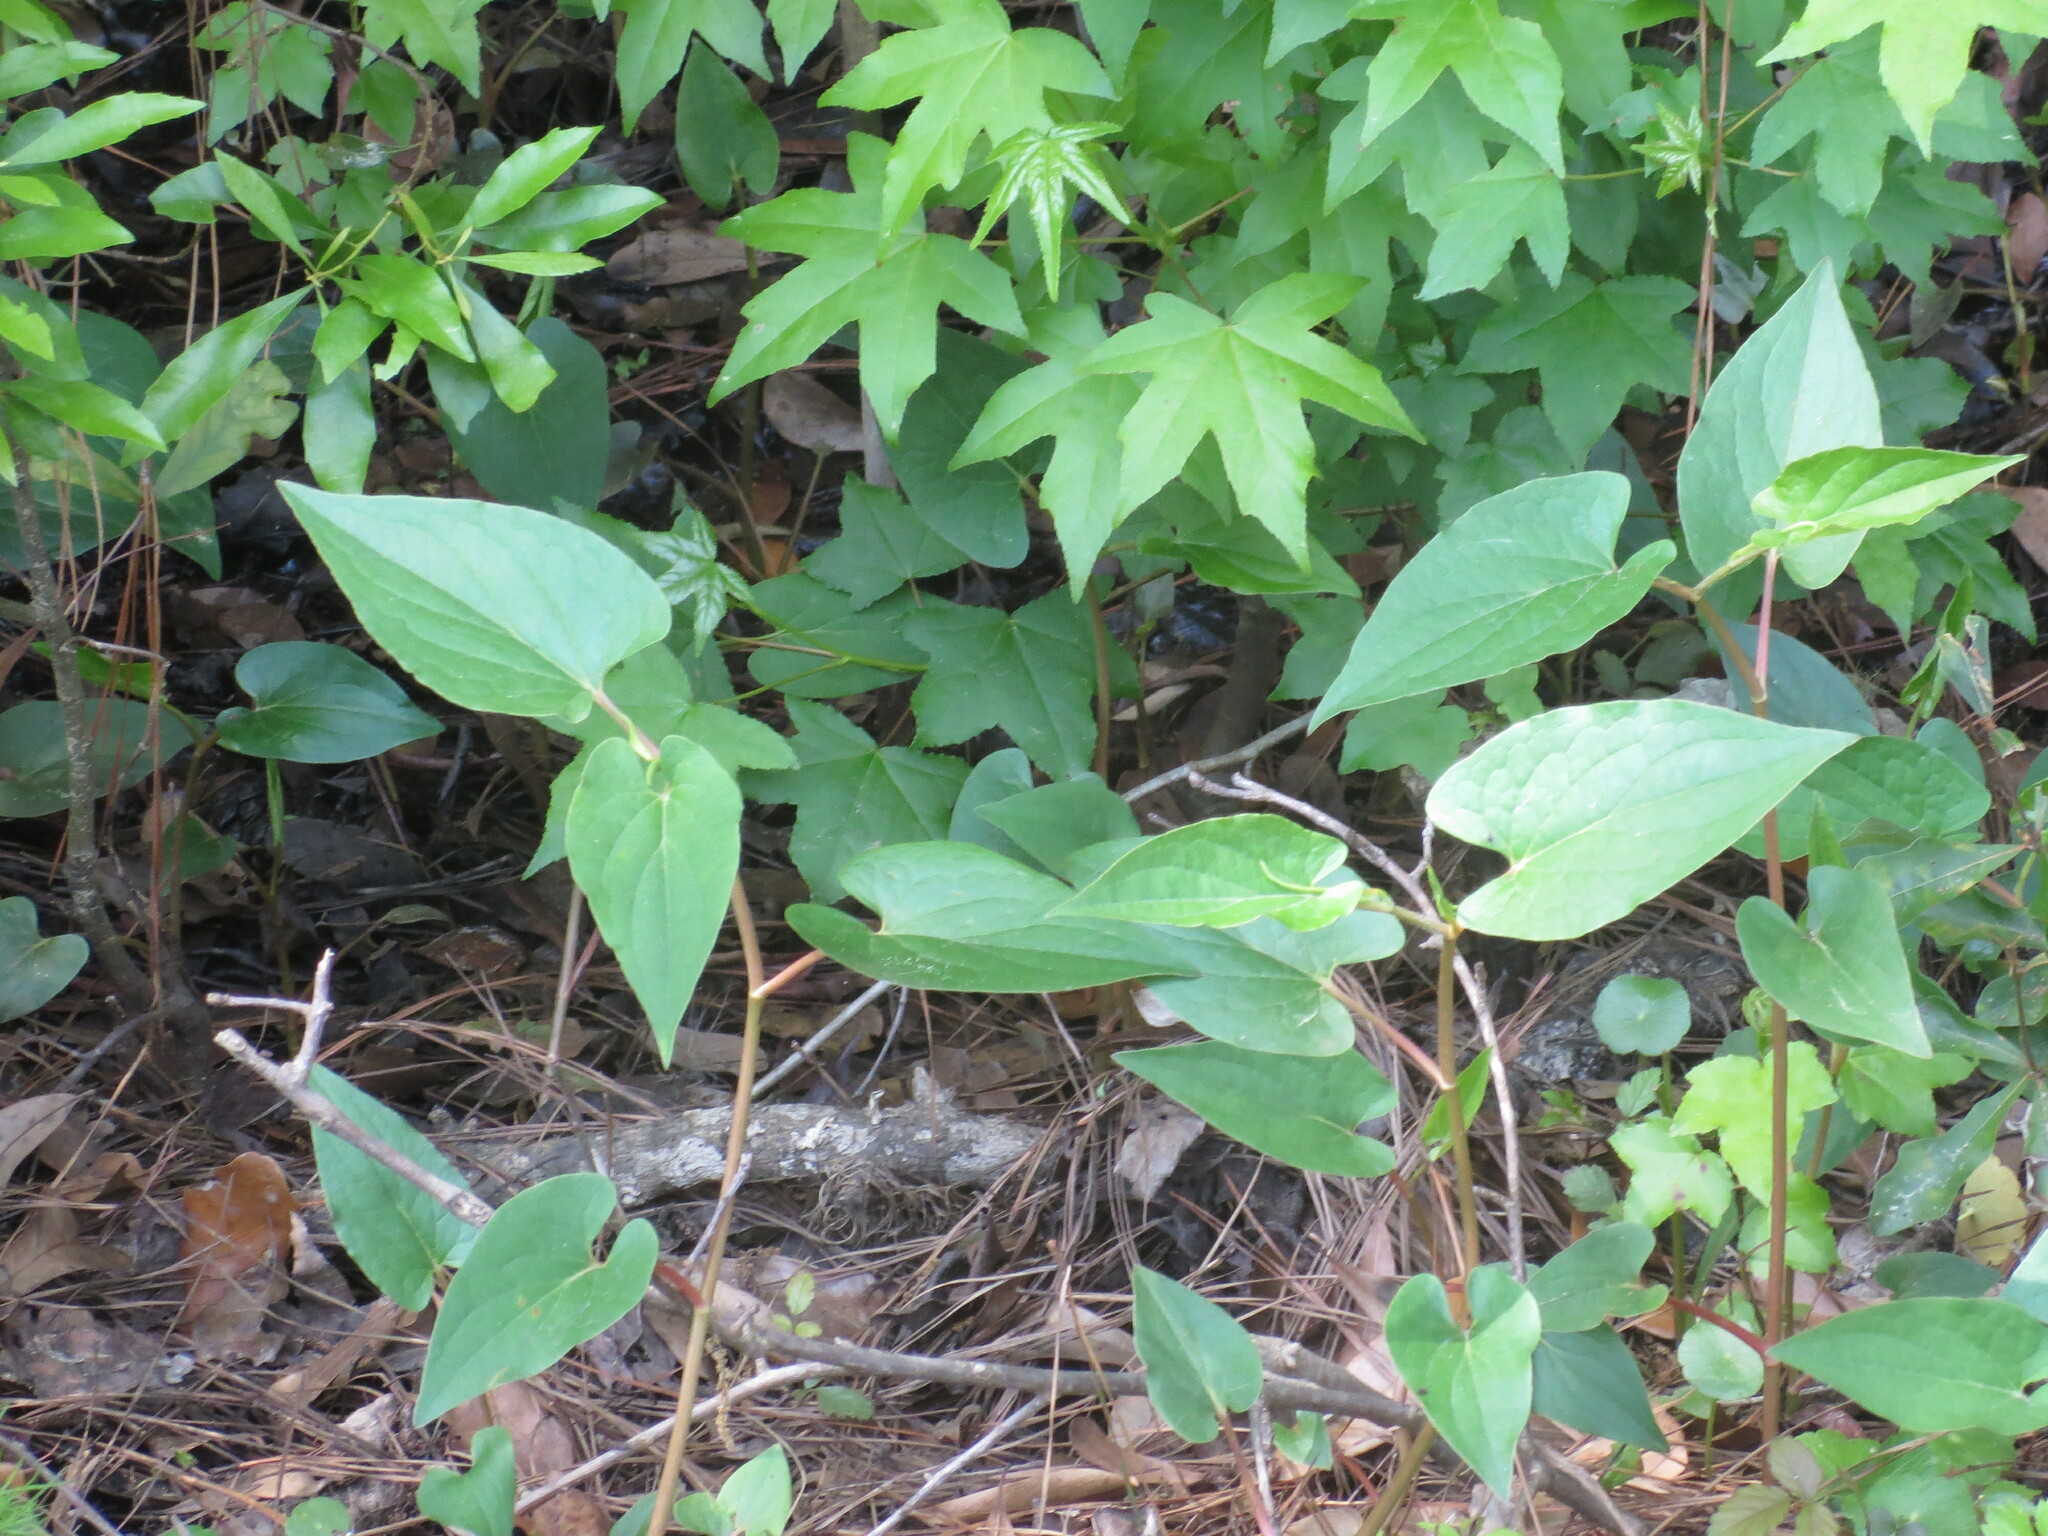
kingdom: Plantae
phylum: Tracheophyta
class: Magnoliopsida
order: Piperales
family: Saururaceae
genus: Saururus
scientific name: Saururus cernuus
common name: Lizard's-tail
